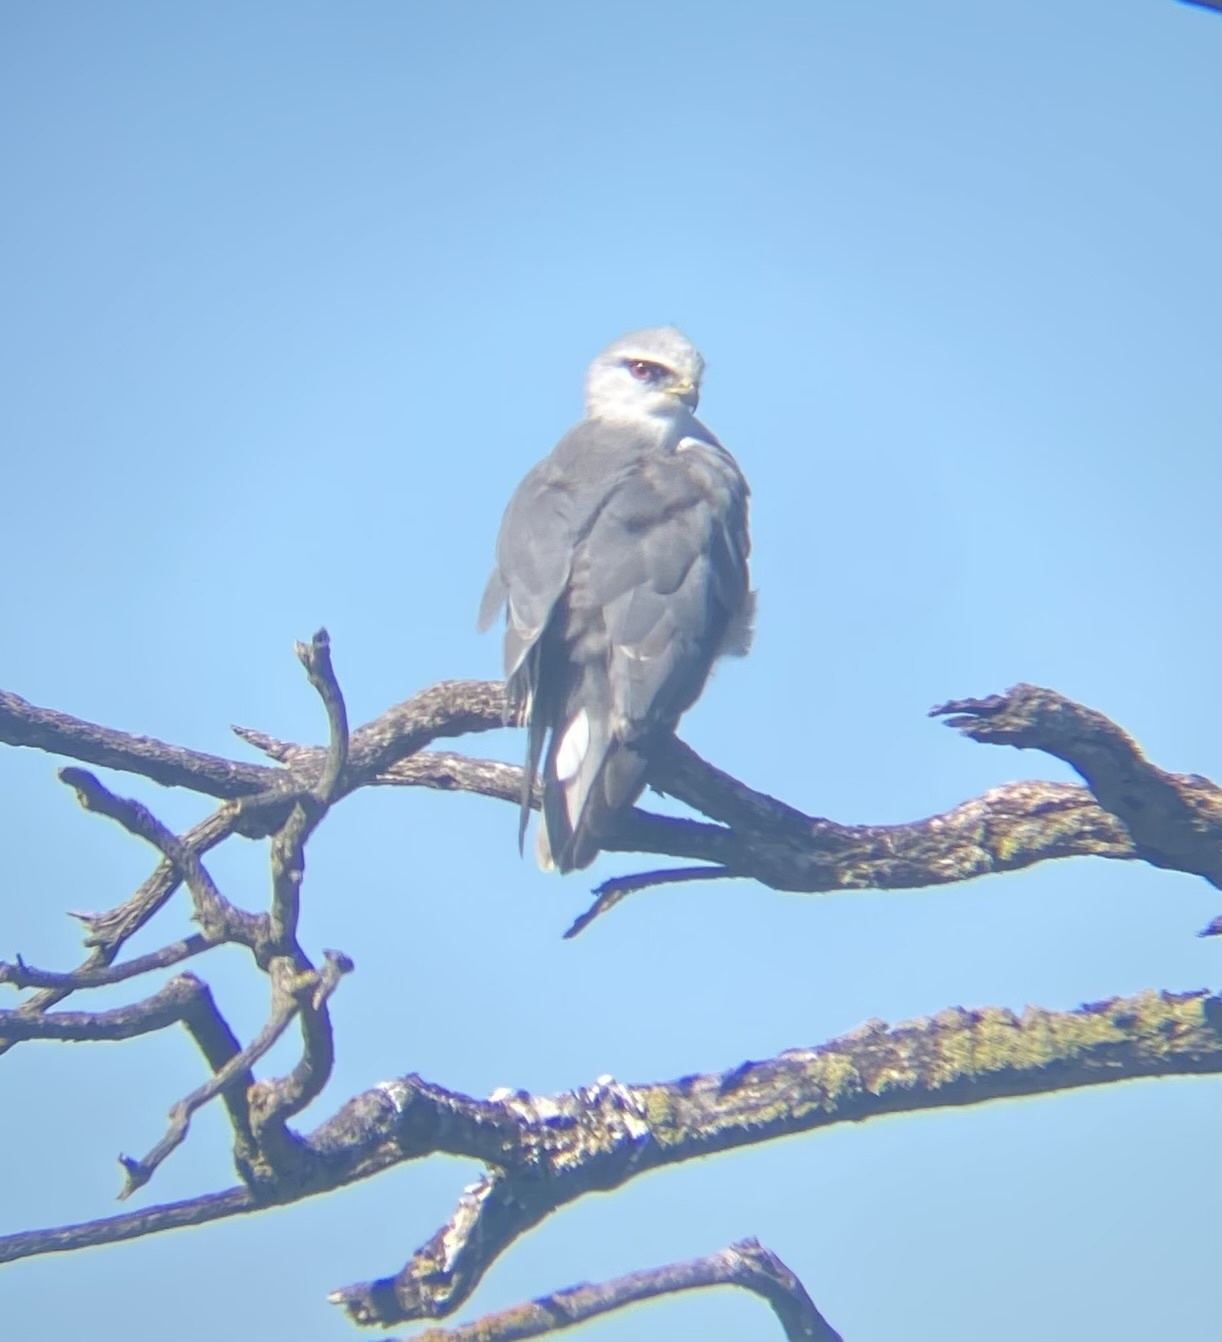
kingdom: Animalia
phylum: Chordata
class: Aves
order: Accipitriformes
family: Accipitridae
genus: Elanus
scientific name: Elanus caeruleus
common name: Black-winged kite
